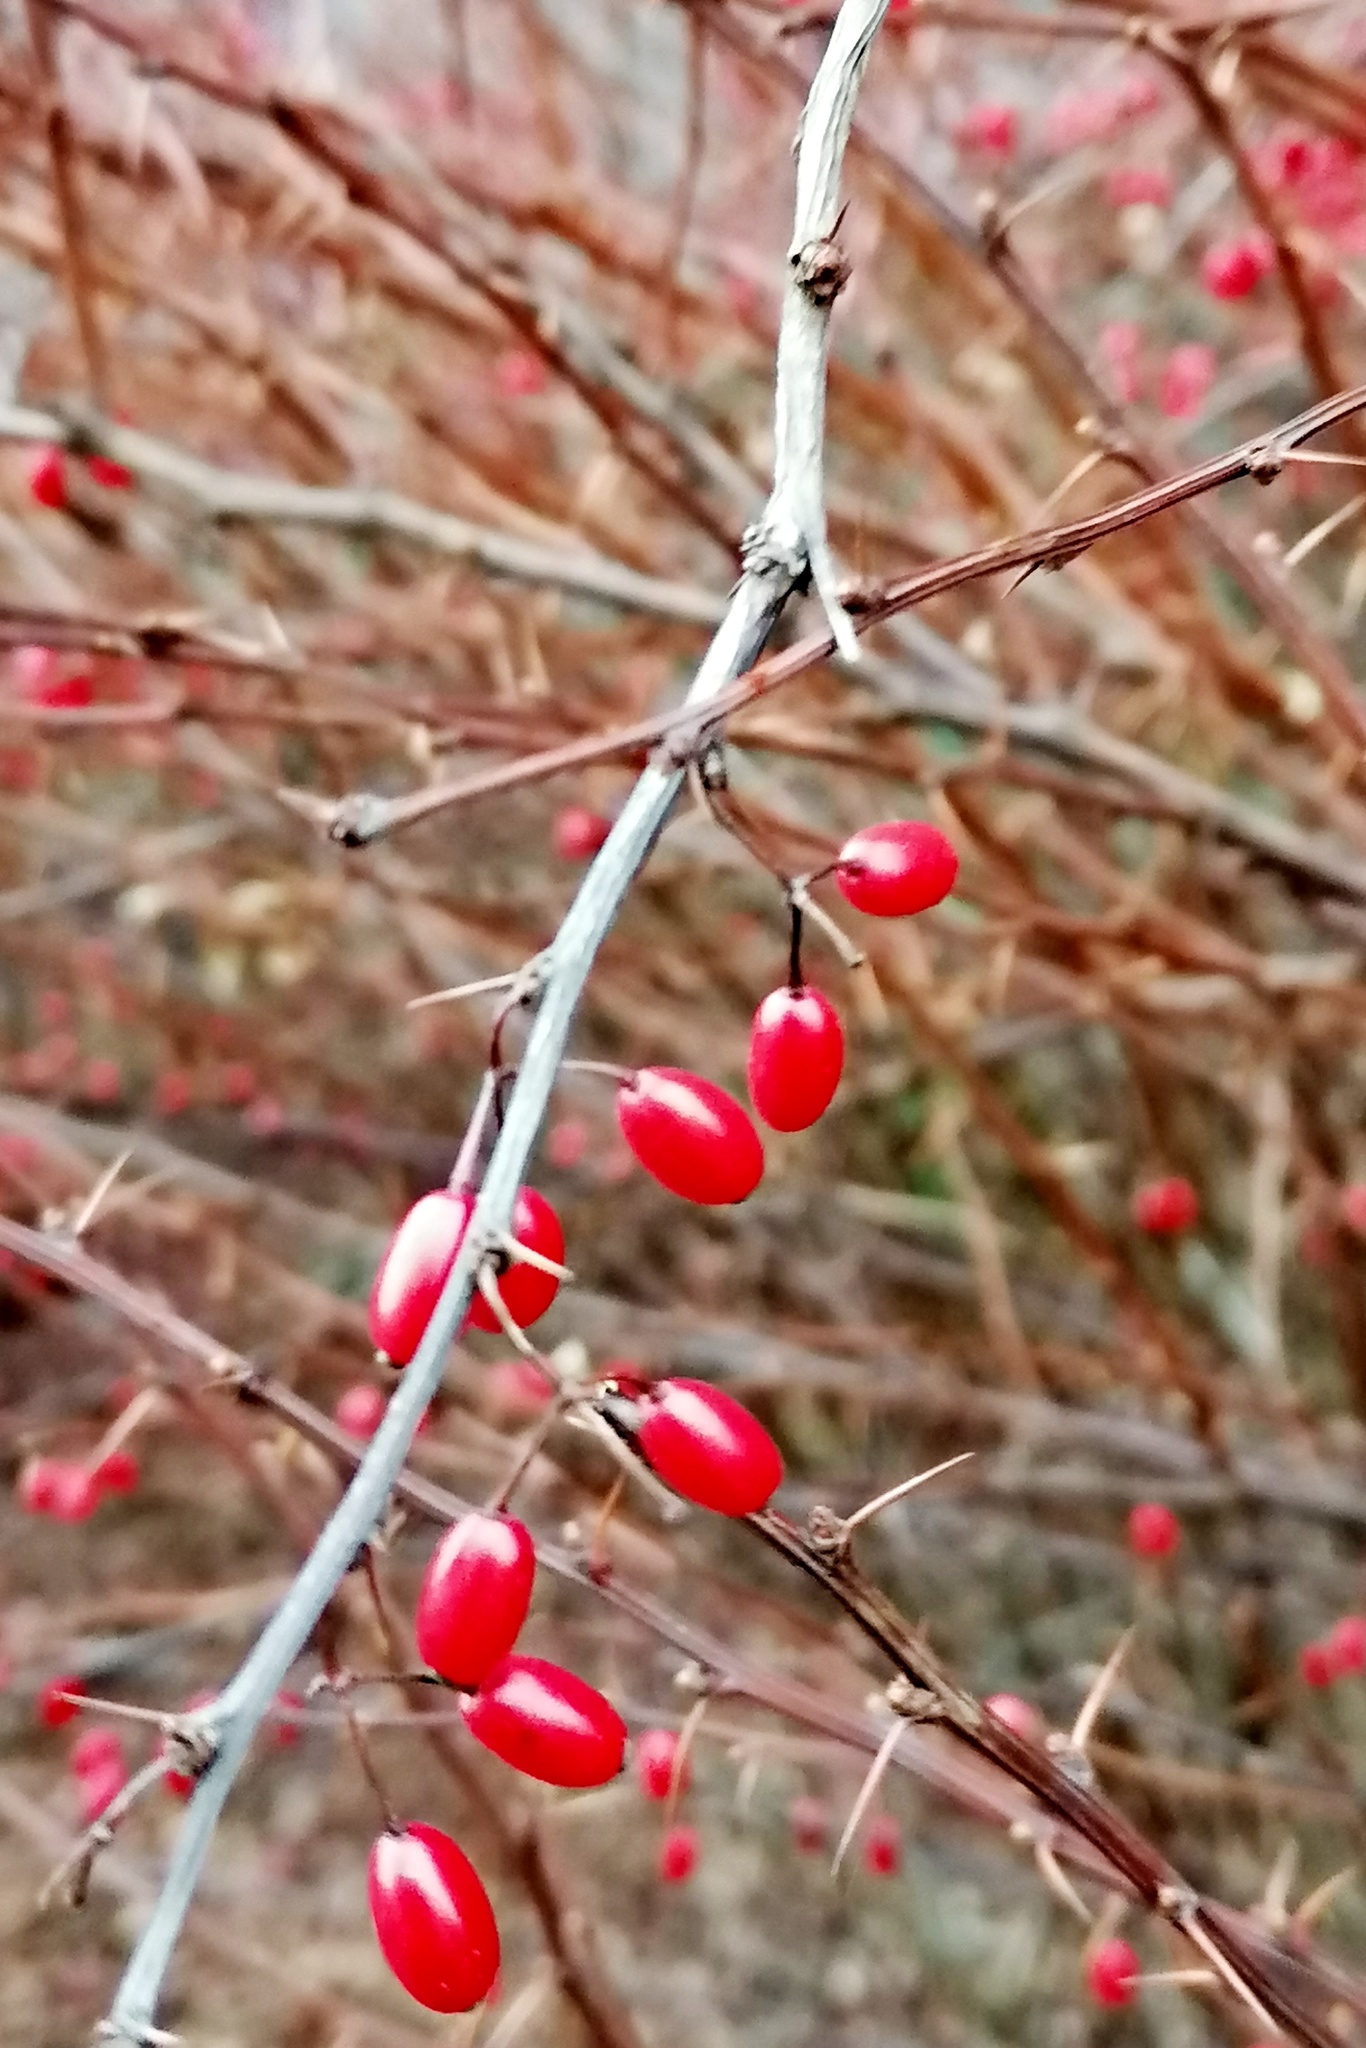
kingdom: Plantae
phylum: Tracheophyta
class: Magnoliopsida
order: Ranunculales
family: Berberidaceae
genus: Berberis
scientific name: Berberis thunbergii
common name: Japanese barberry
